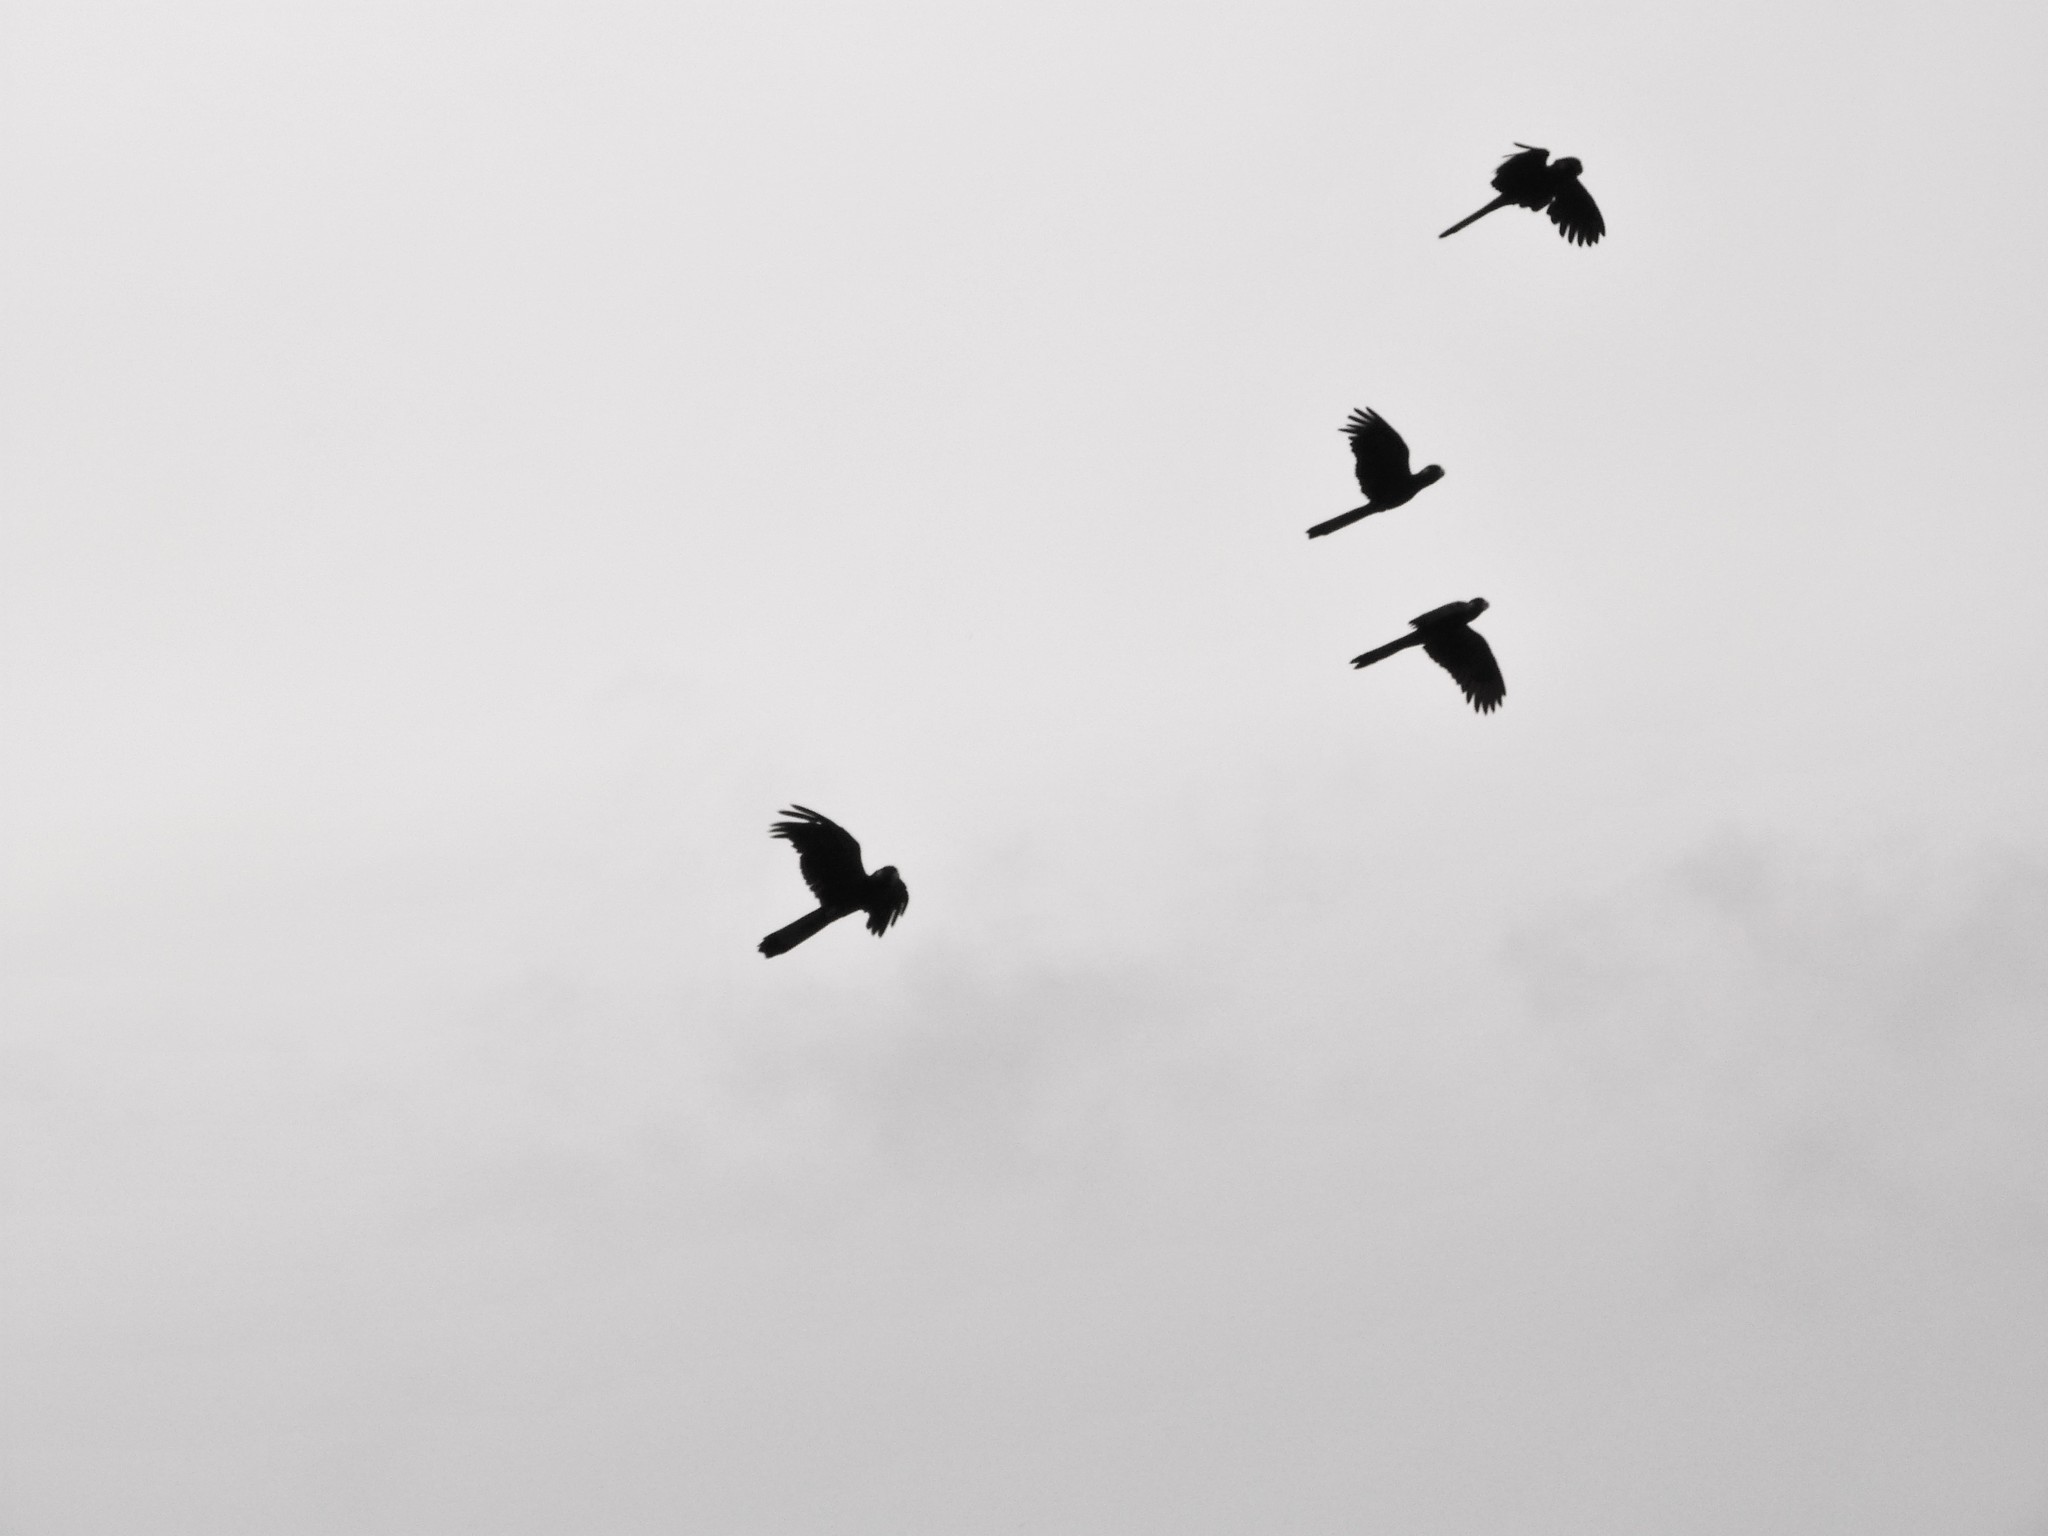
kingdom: Animalia
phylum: Chordata
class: Aves
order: Psittaciformes
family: Cacatuidae
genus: Zanda
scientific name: Zanda funerea
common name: Yellow-tailed black-cockatoo
